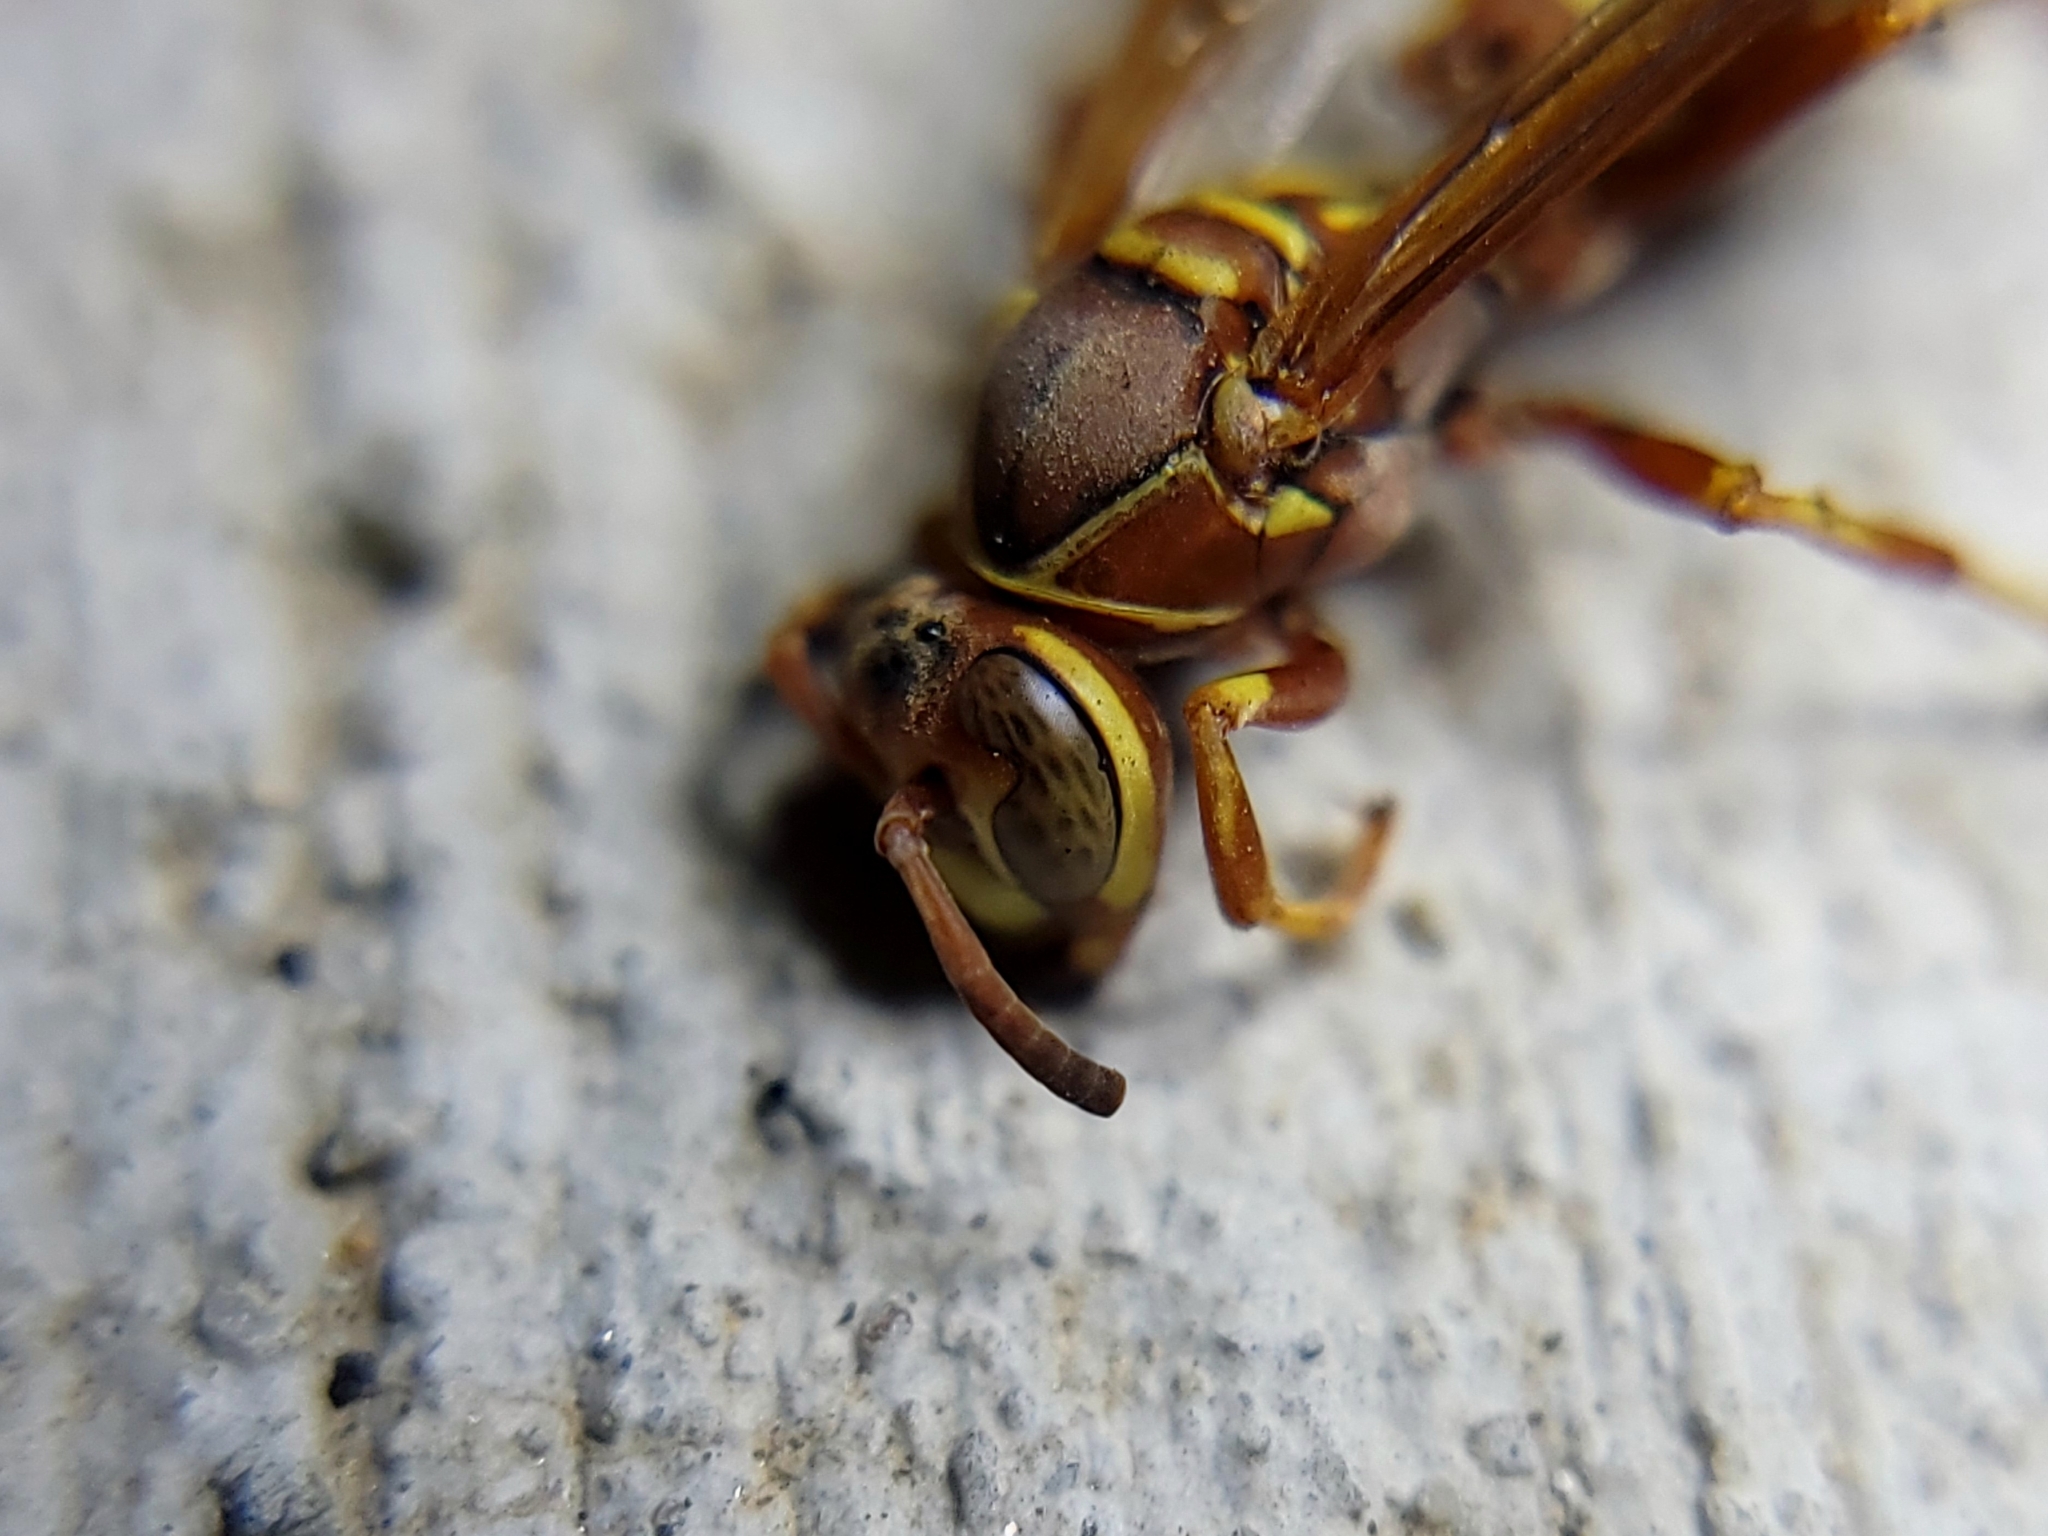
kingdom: Animalia
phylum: Arthropoda
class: Insecta
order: Hymenoptera
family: Eumenidae
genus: Polistes
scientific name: Polistes dorsalis
